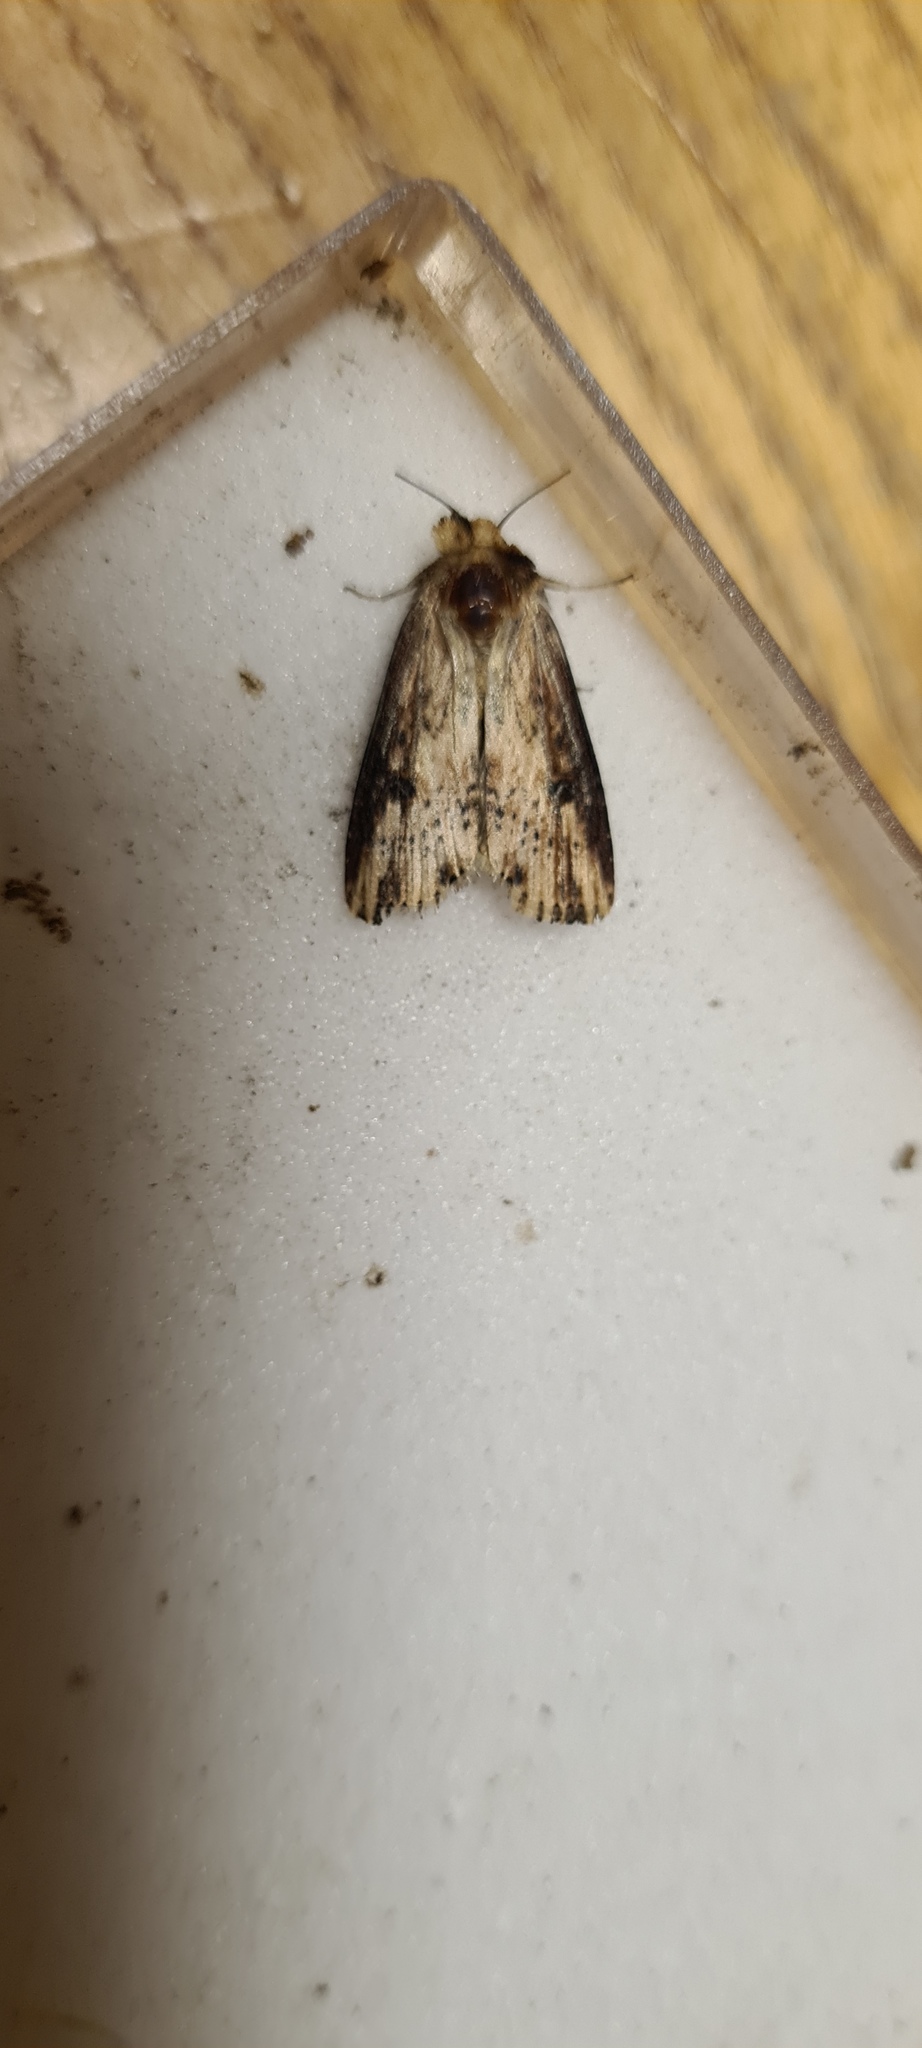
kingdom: Animalia
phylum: Arthropoda
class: Insecta
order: Lepidoptera
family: Noctuidae
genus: Axylia
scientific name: Axylia putris
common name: Flame
